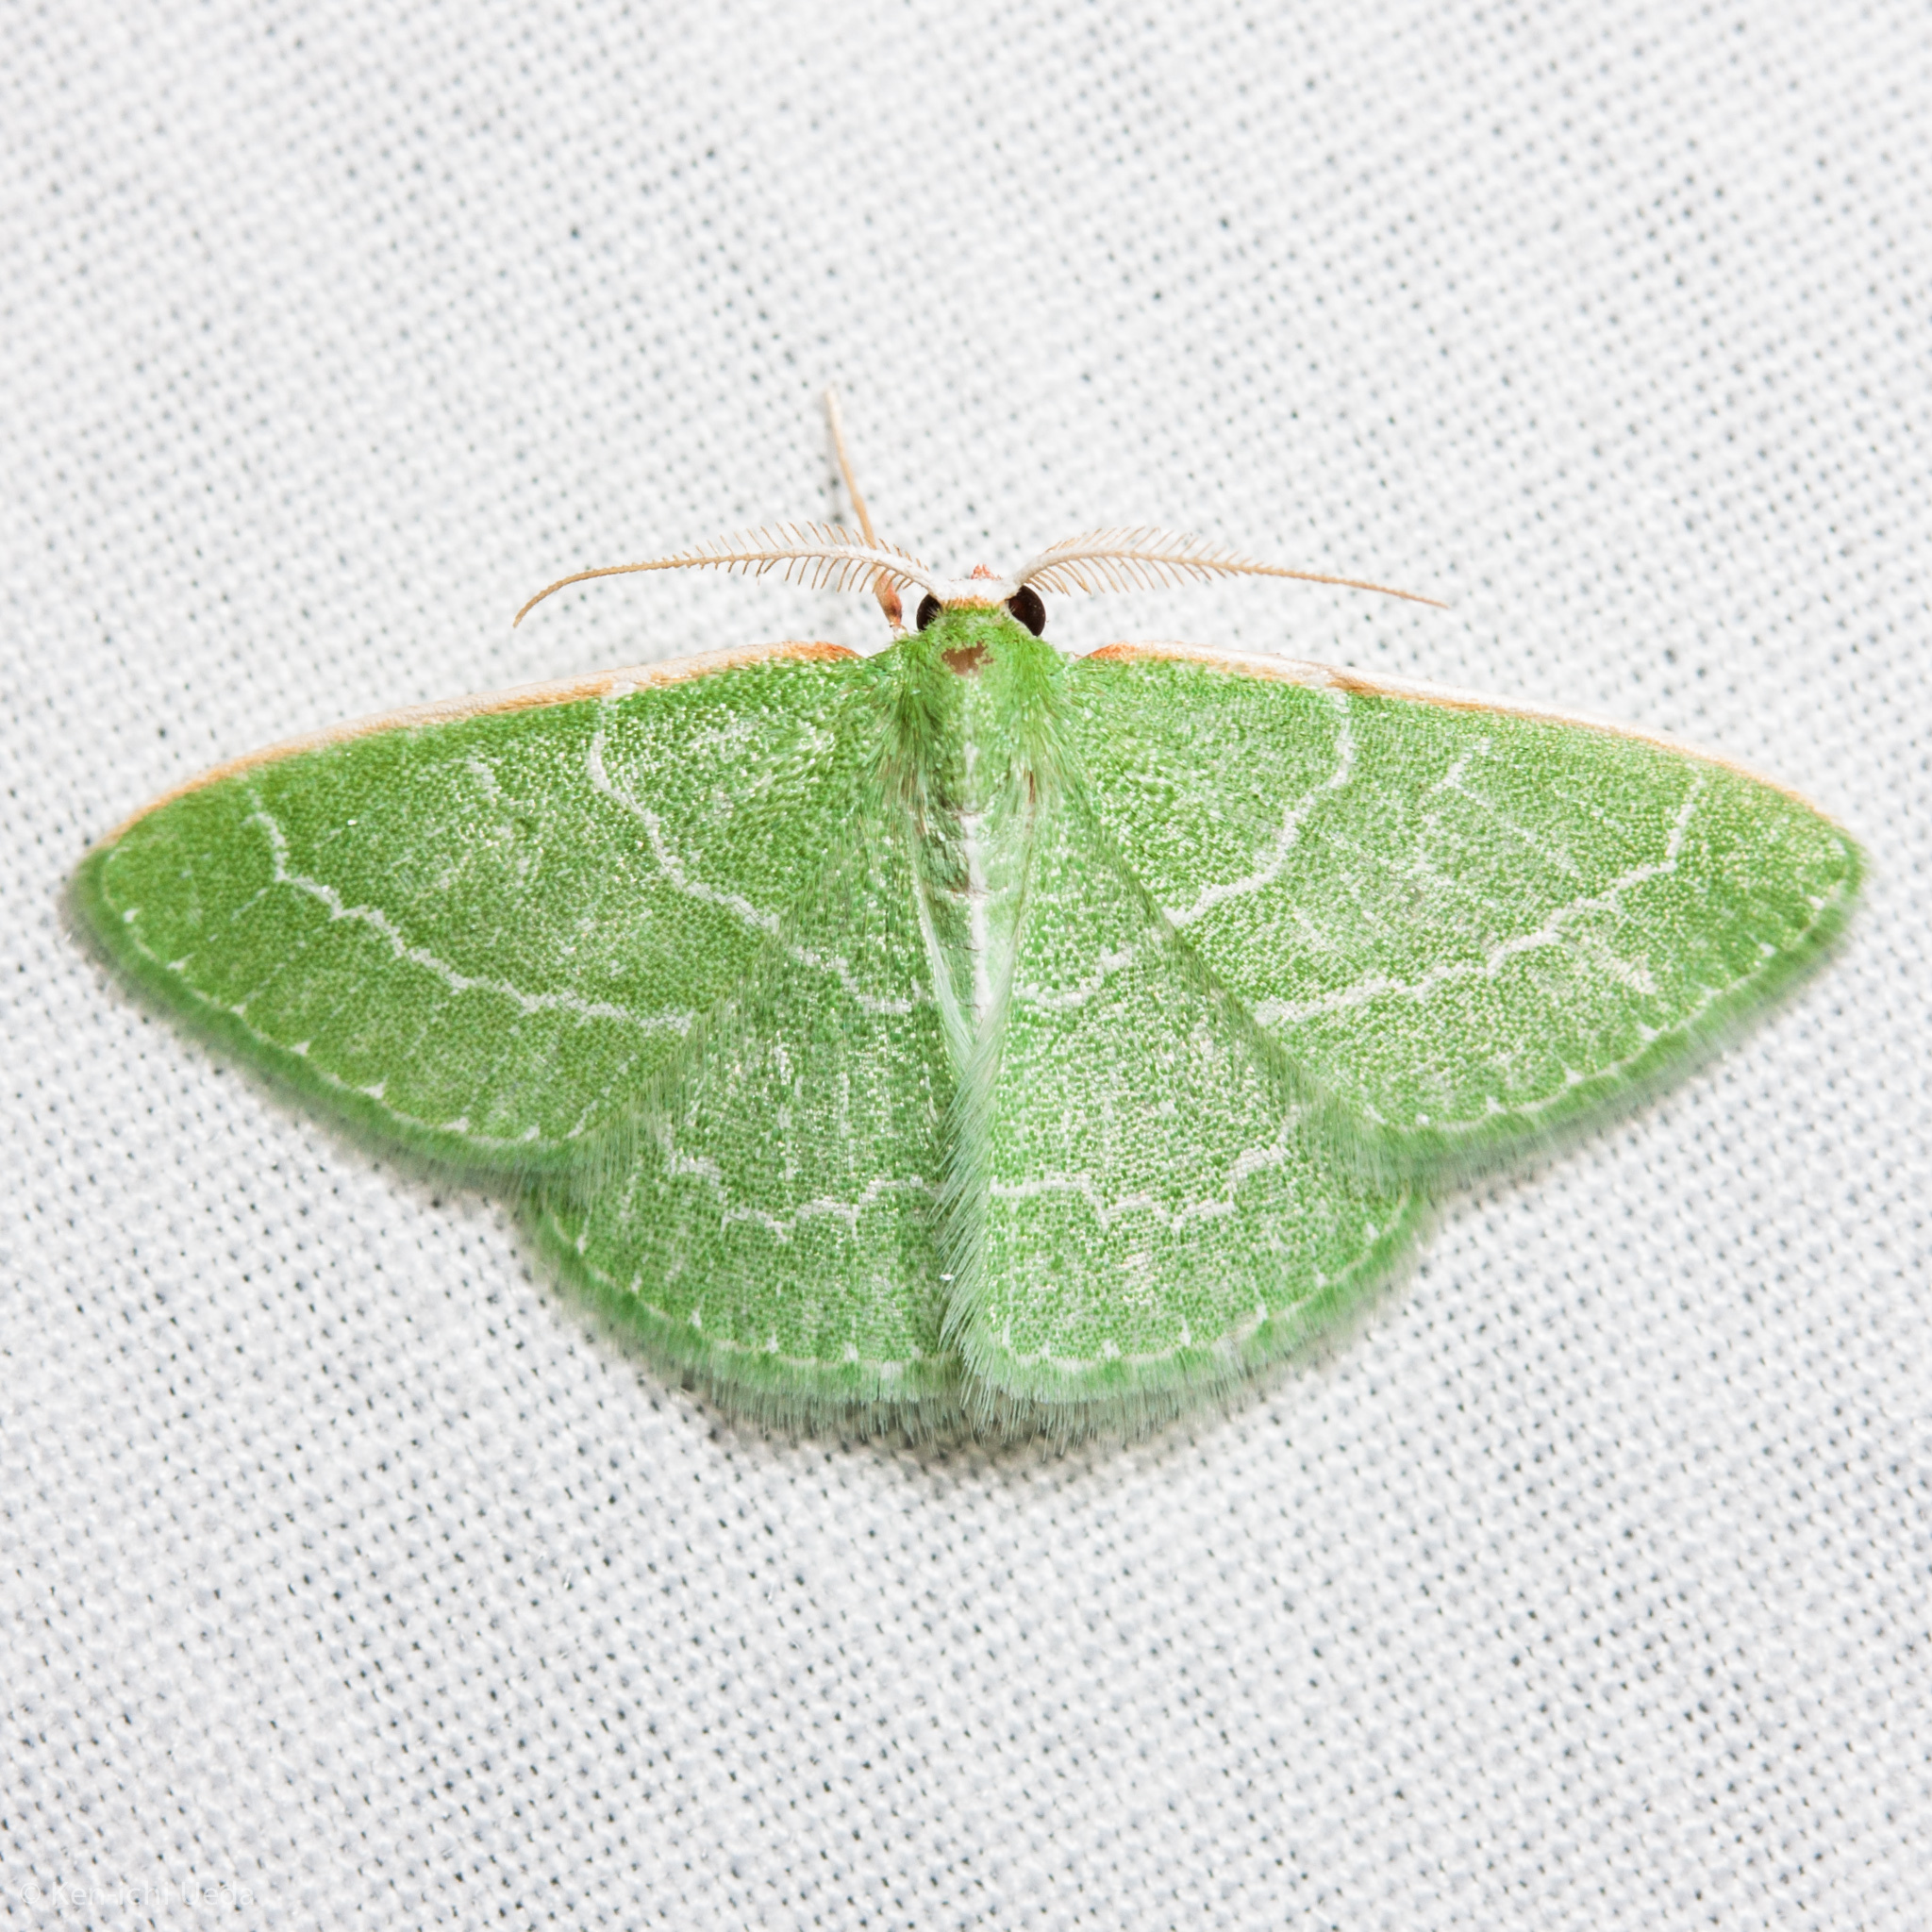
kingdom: Animalia
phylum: Arthropoda
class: Insecta
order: Lepidoptera
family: Geometridae
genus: Synchlora
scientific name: Synchlora aerata
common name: Wavy-lined emerald
